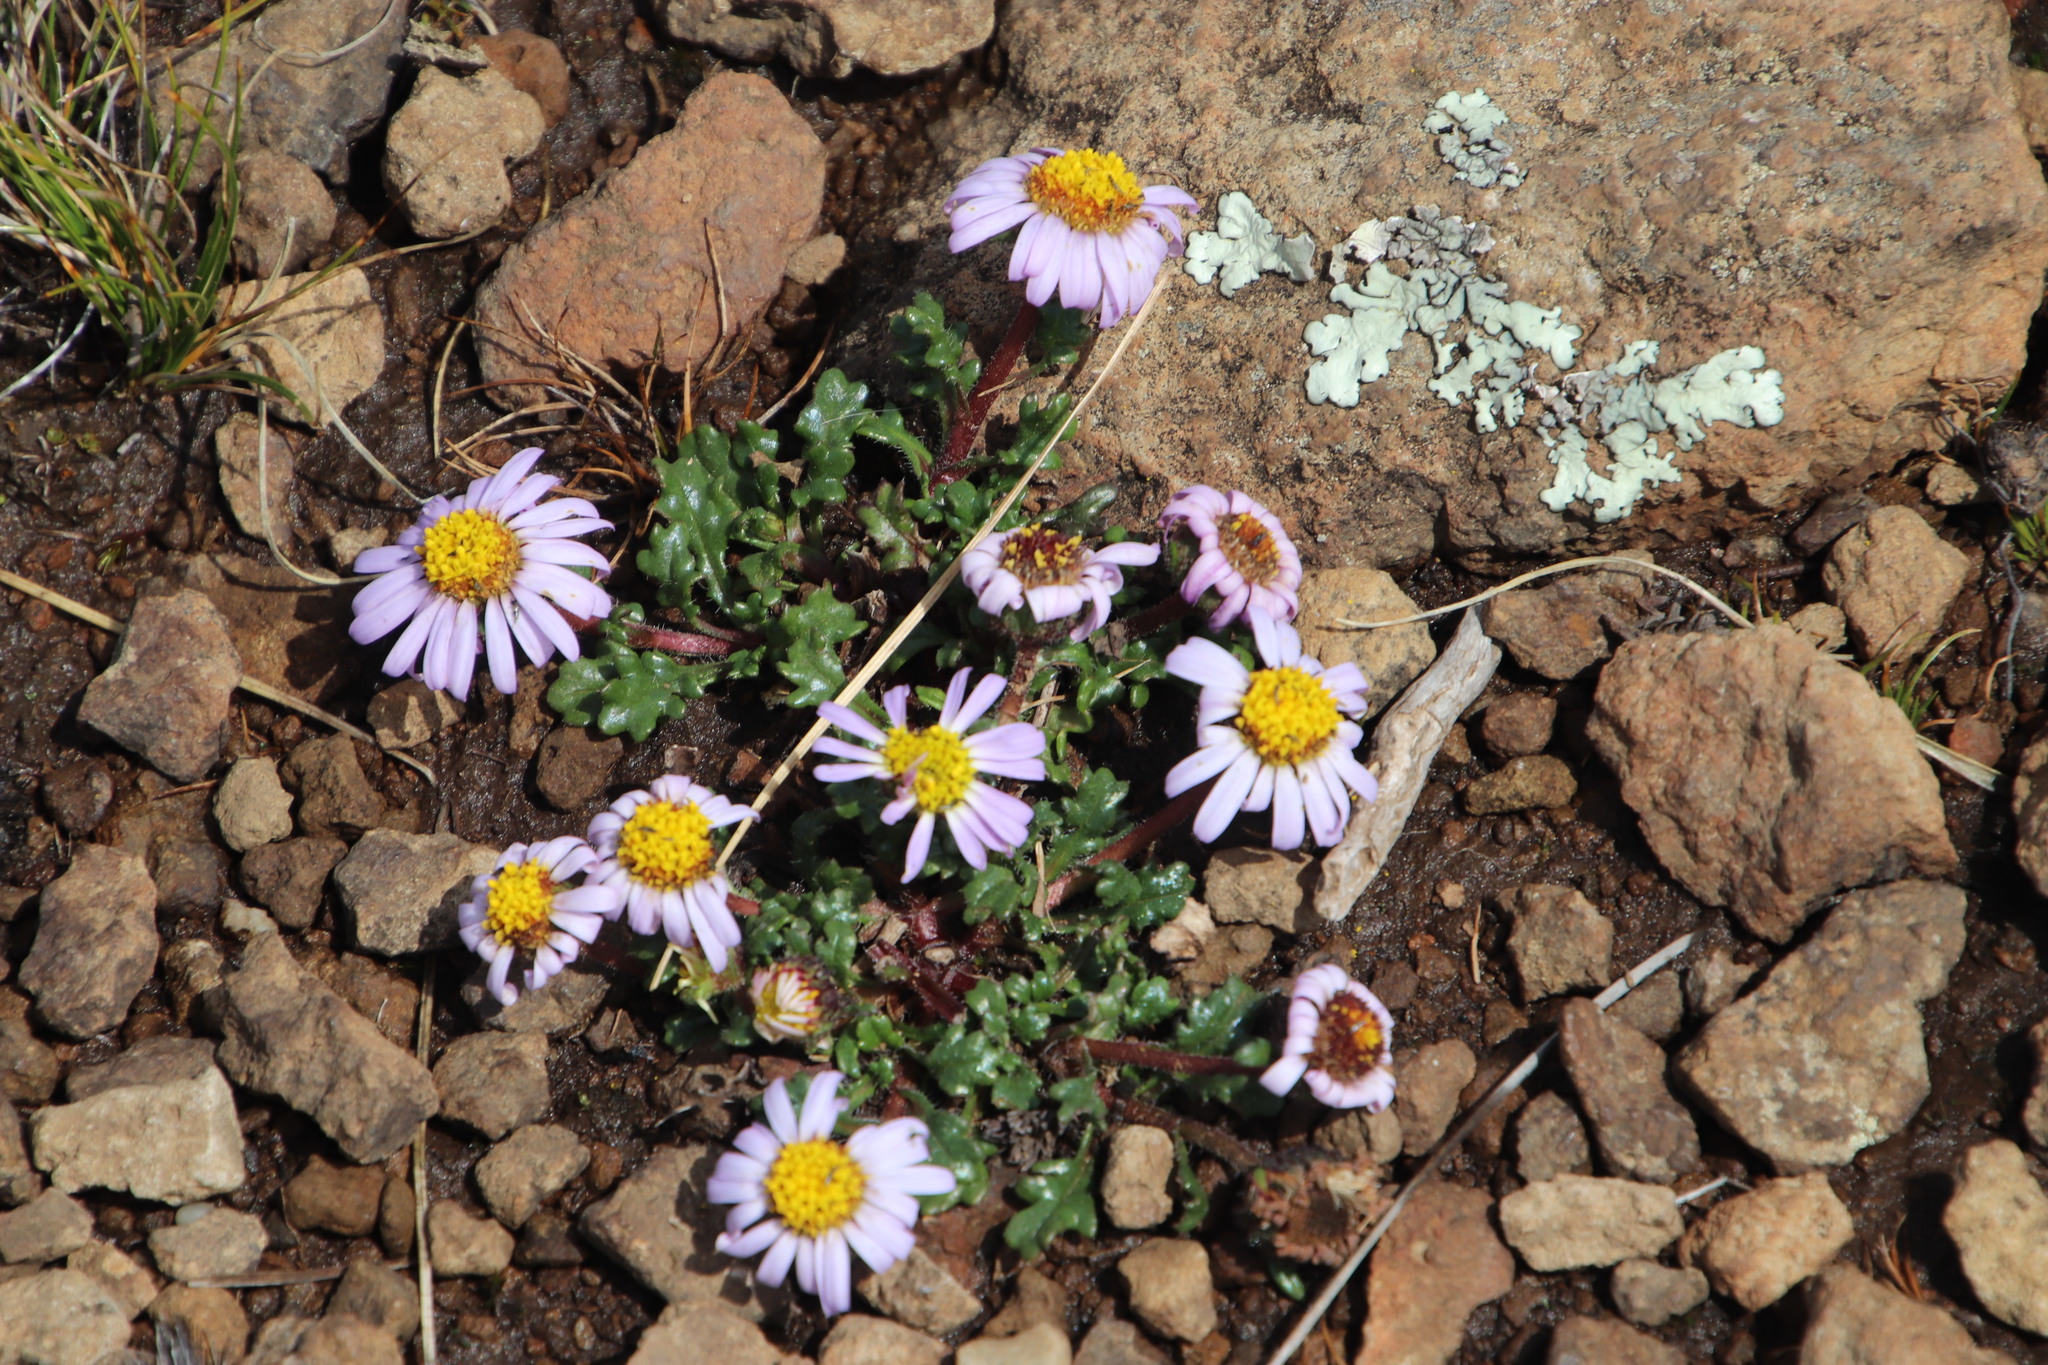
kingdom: Plantae
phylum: Tracheophyta
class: Magnoliopsida
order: Asterales
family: Asteraceae
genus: Afroaster
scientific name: Afroaster erucifolius
